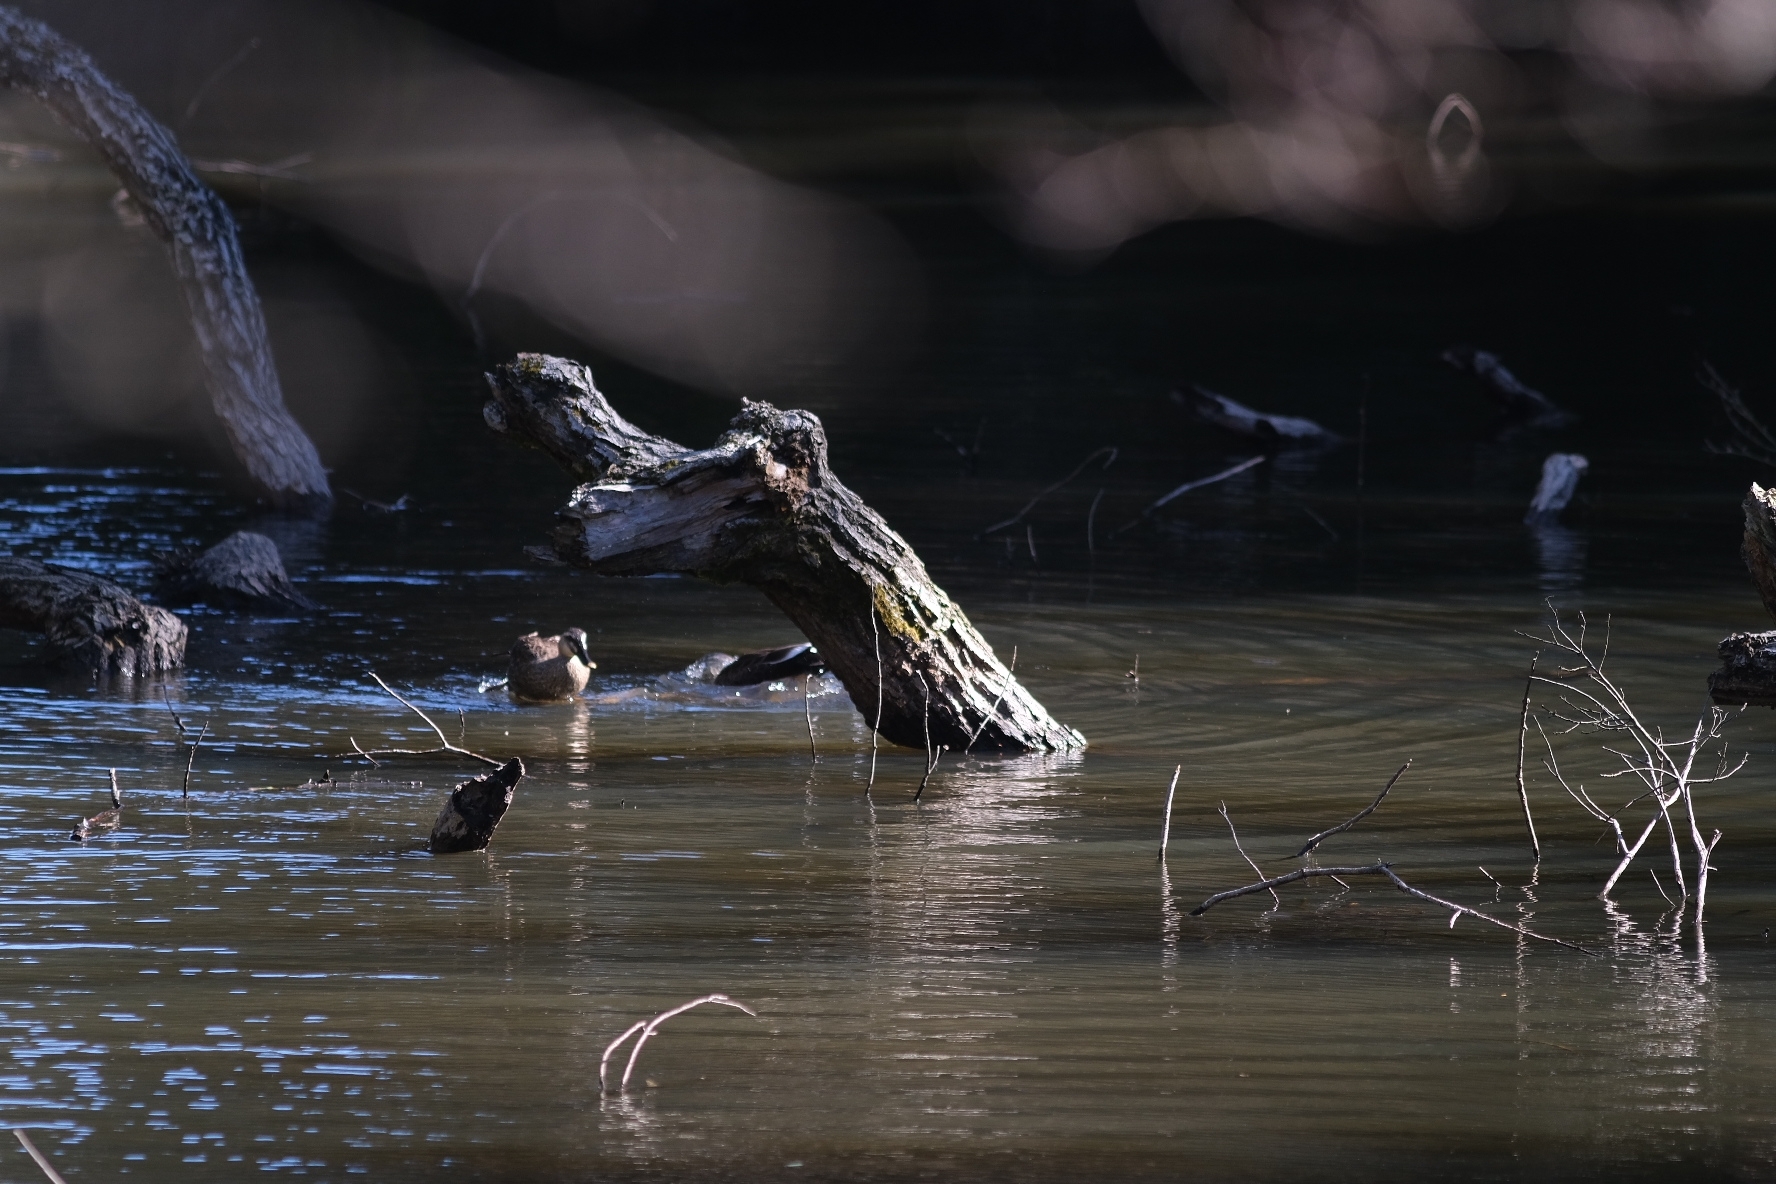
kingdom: Animalia
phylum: Chordata
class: Aves
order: Anseriformes
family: Anatidae
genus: Anas
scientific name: Anas zonorhyncha
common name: Eastern spot-billed duck
